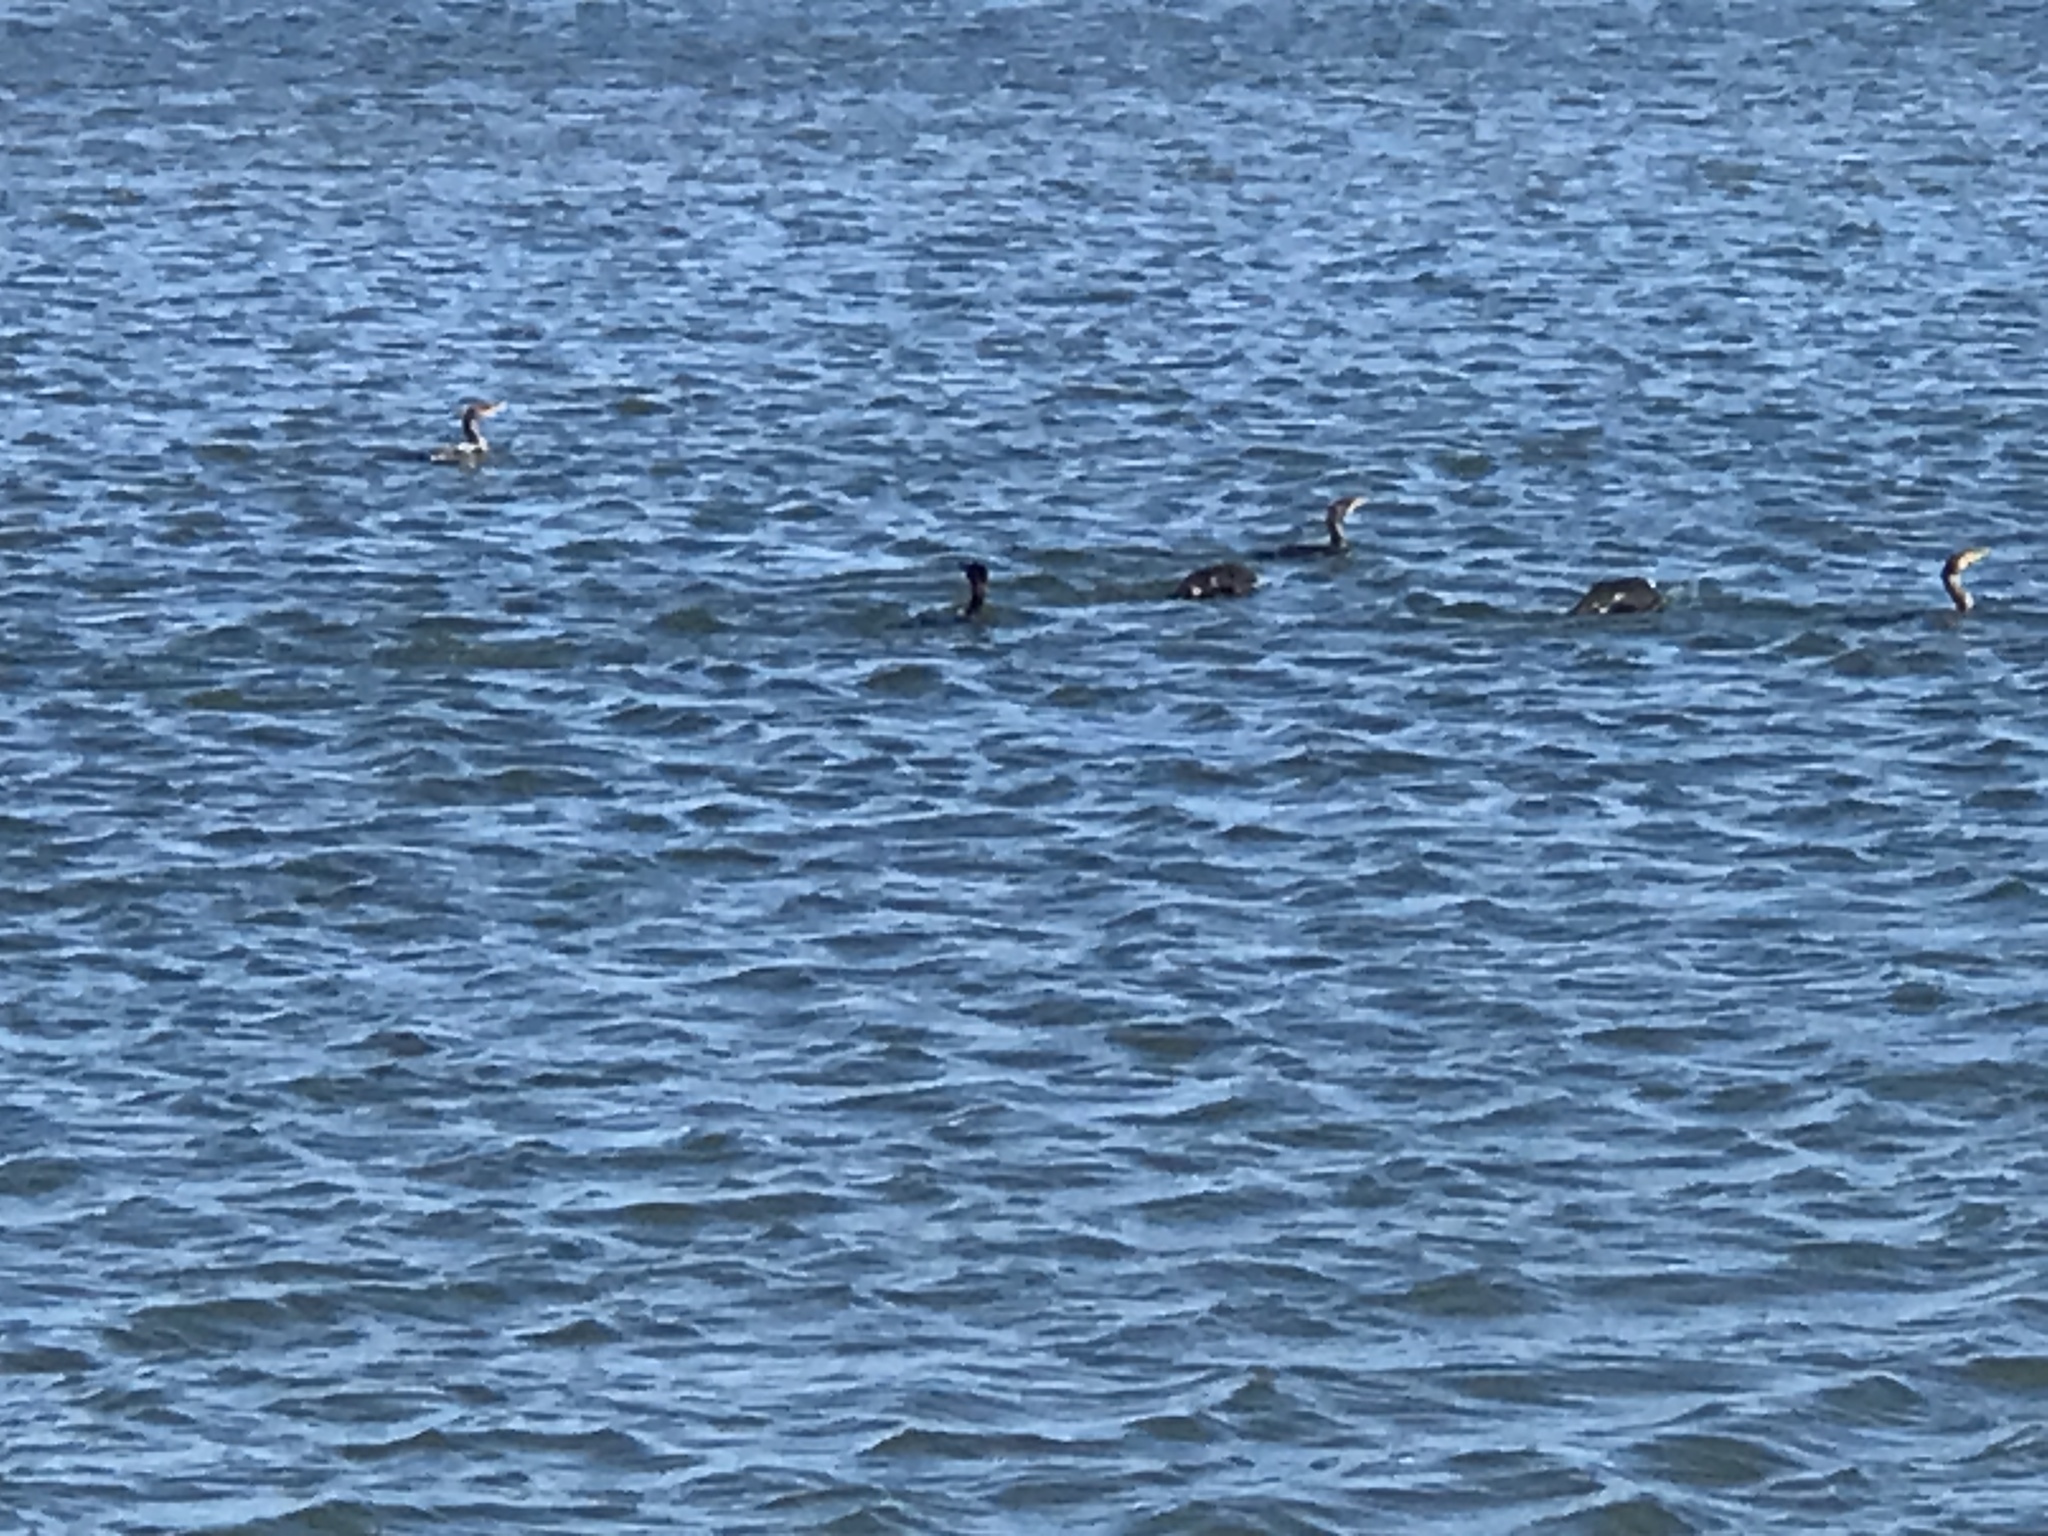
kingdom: Animalia
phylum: Chordata
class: Aves
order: Suliformes
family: Phalacrocoracidae
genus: Phalacrocorax
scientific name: Phalacrocorax auritus
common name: Double-crested cormorant
